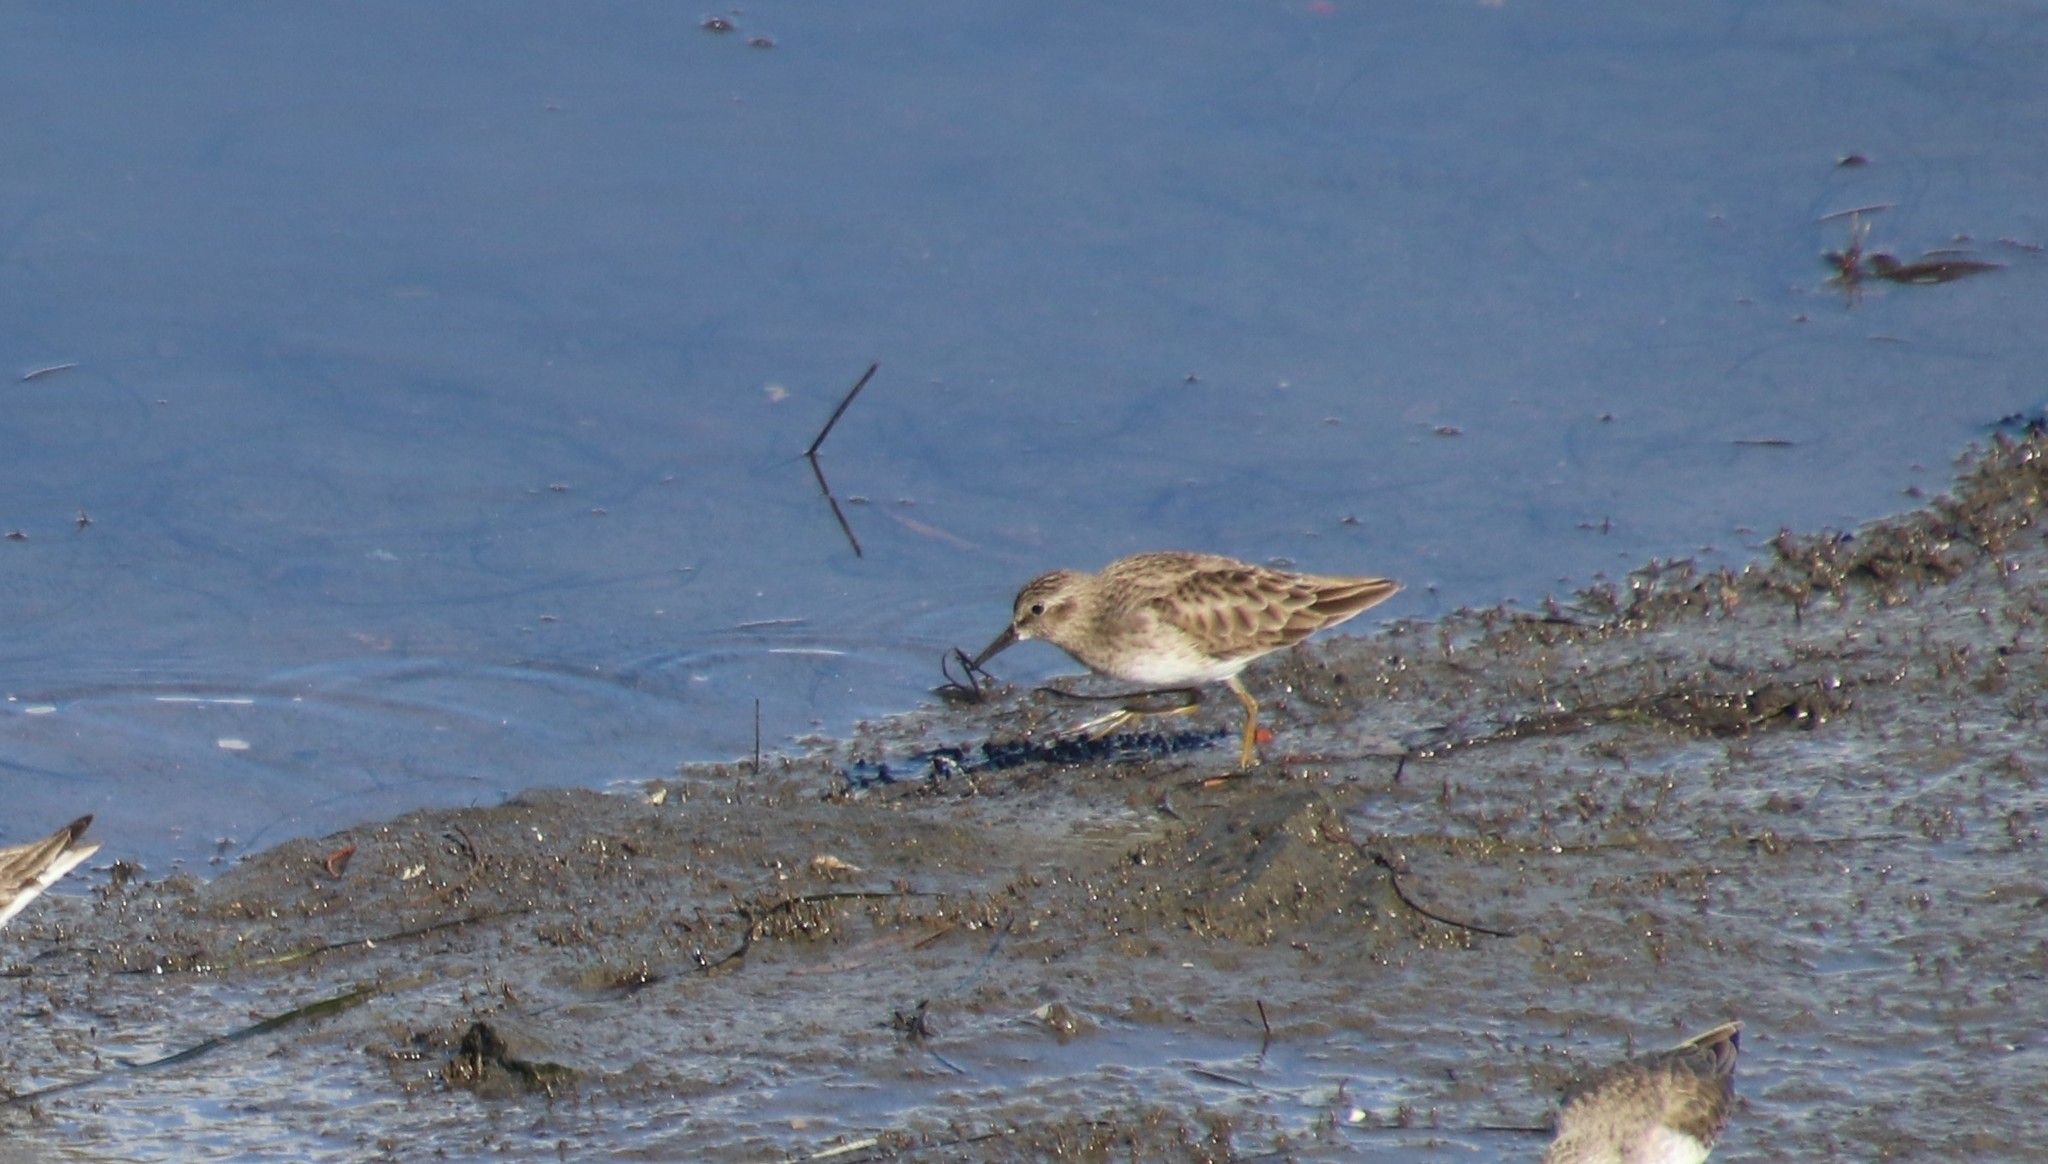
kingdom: Animalia
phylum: Chordata
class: Aves
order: Charadriiformes
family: Scolopacidae
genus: Calidris
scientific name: Calidris minutilla
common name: Least sandpiper
